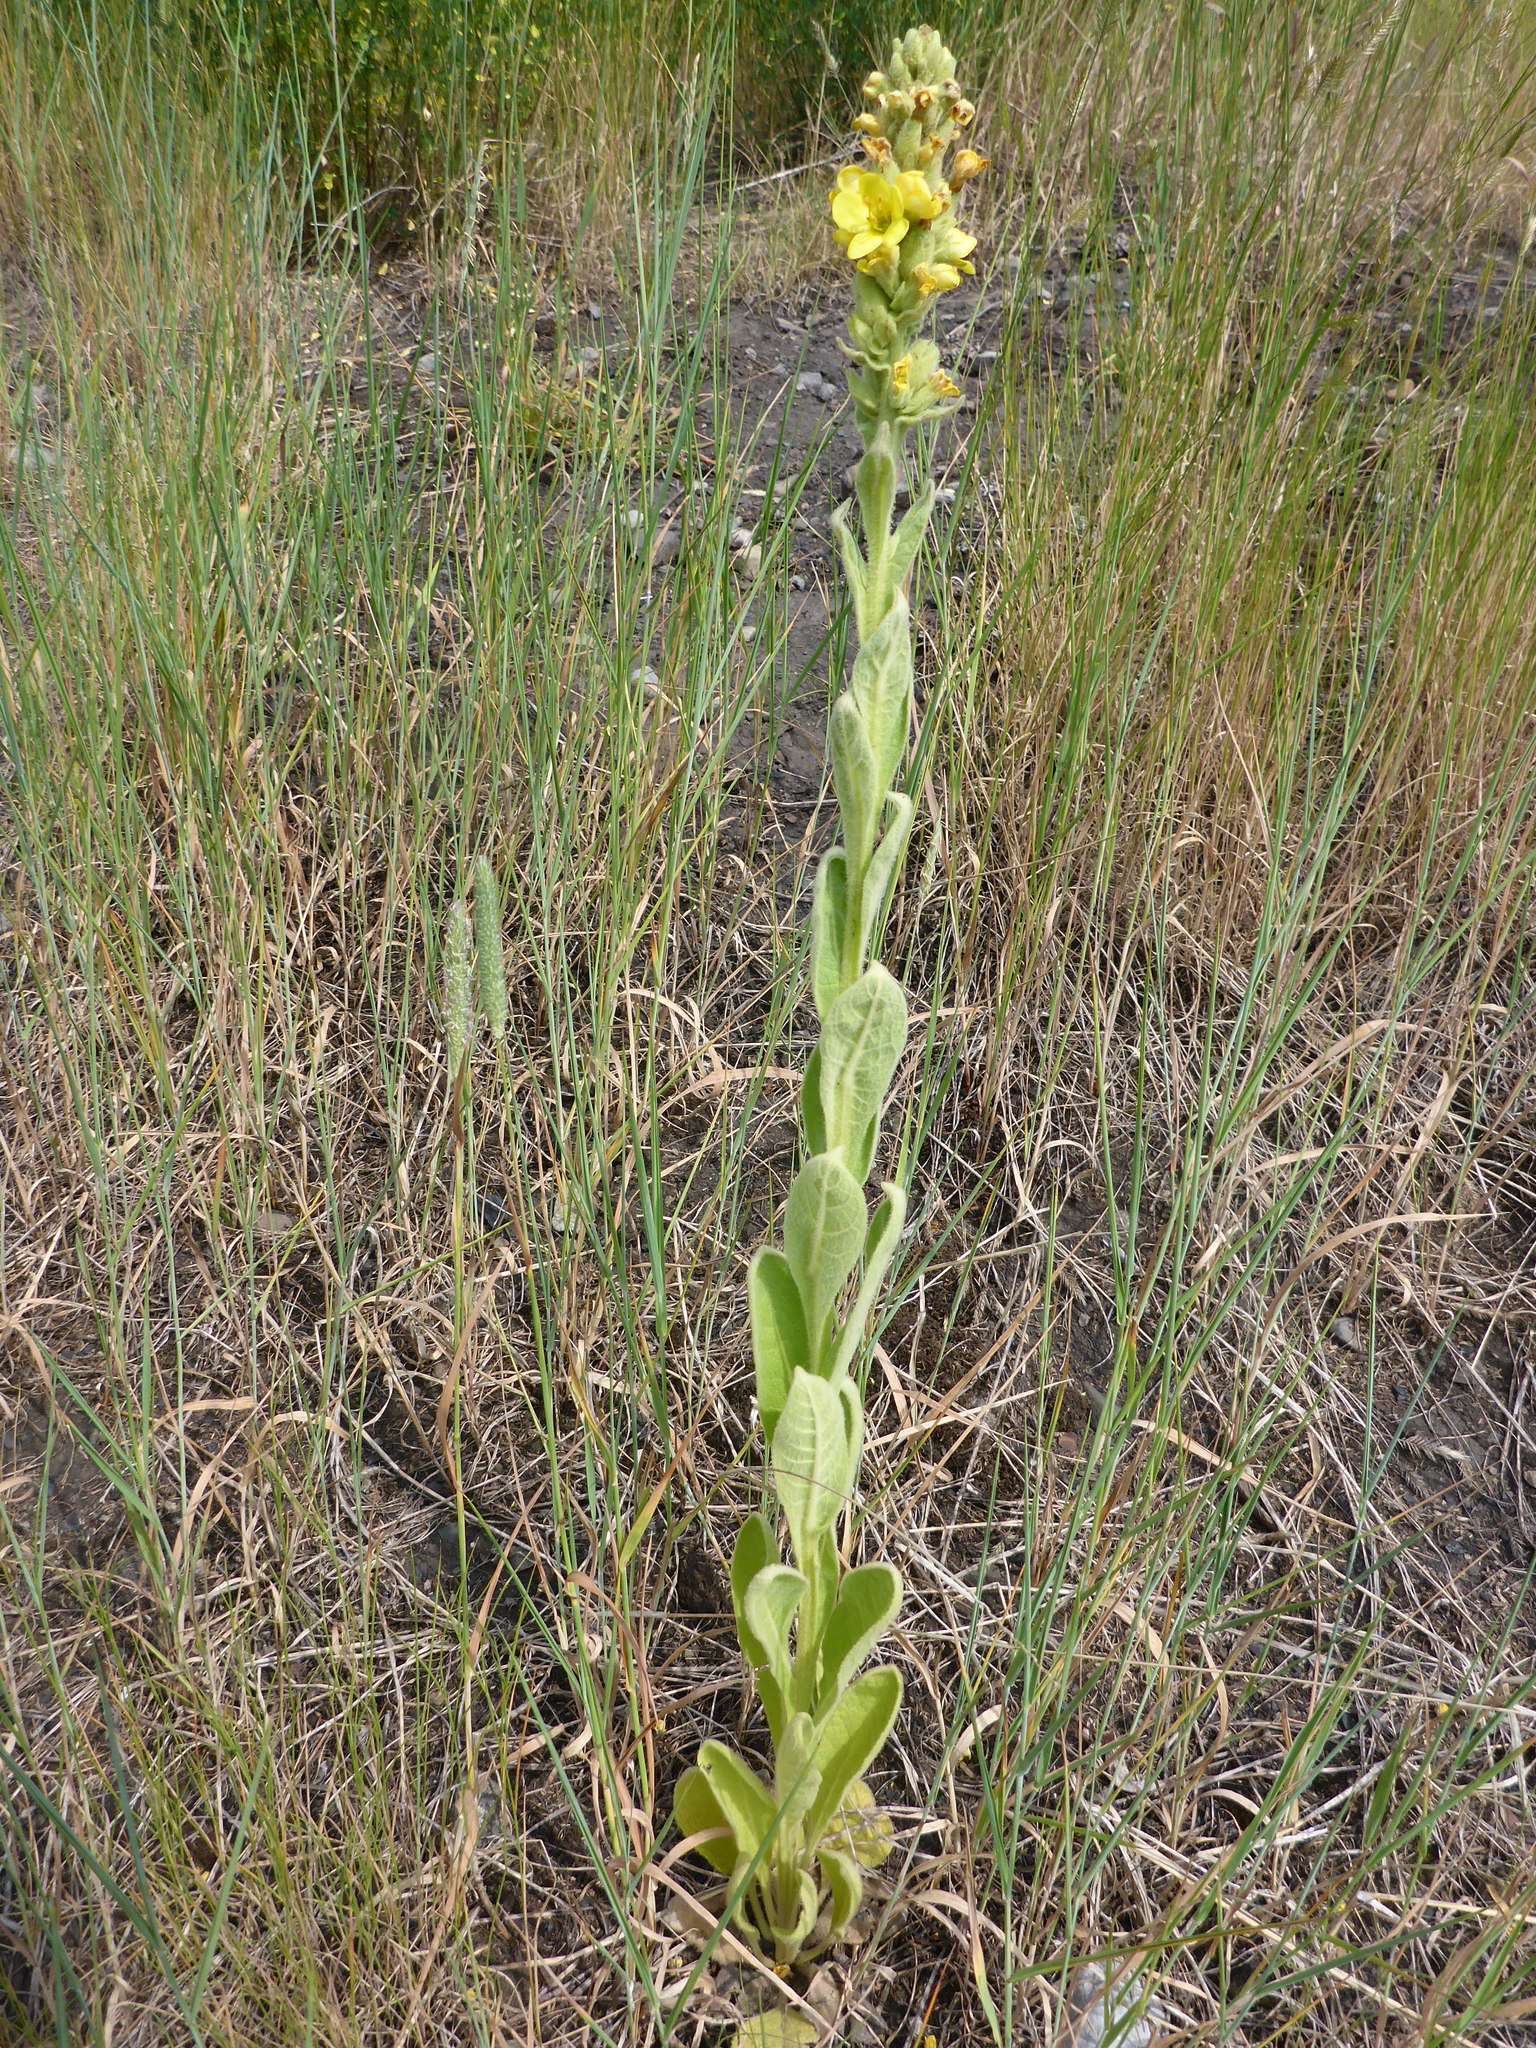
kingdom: Plantae
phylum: Tracheophyta
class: Magnoliopsida
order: Lamiales
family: Scrophulariaceae
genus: Verbascum
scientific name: Verbascum thapsus
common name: Common mullein
